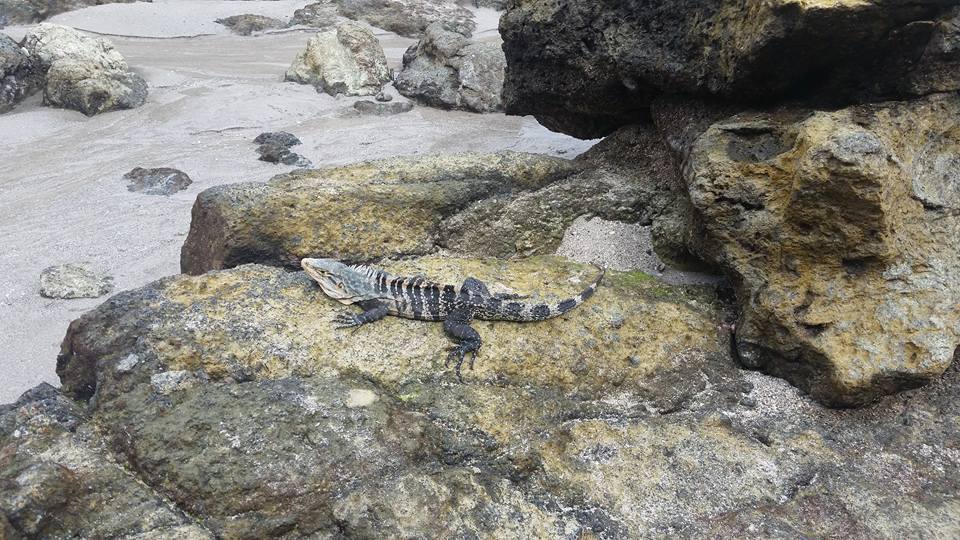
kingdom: Animalia
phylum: Chordata
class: Squamata
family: Iguanidae
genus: Ctenosaura
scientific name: Ctenosaura similis
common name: Black spiny-tailed iguana
